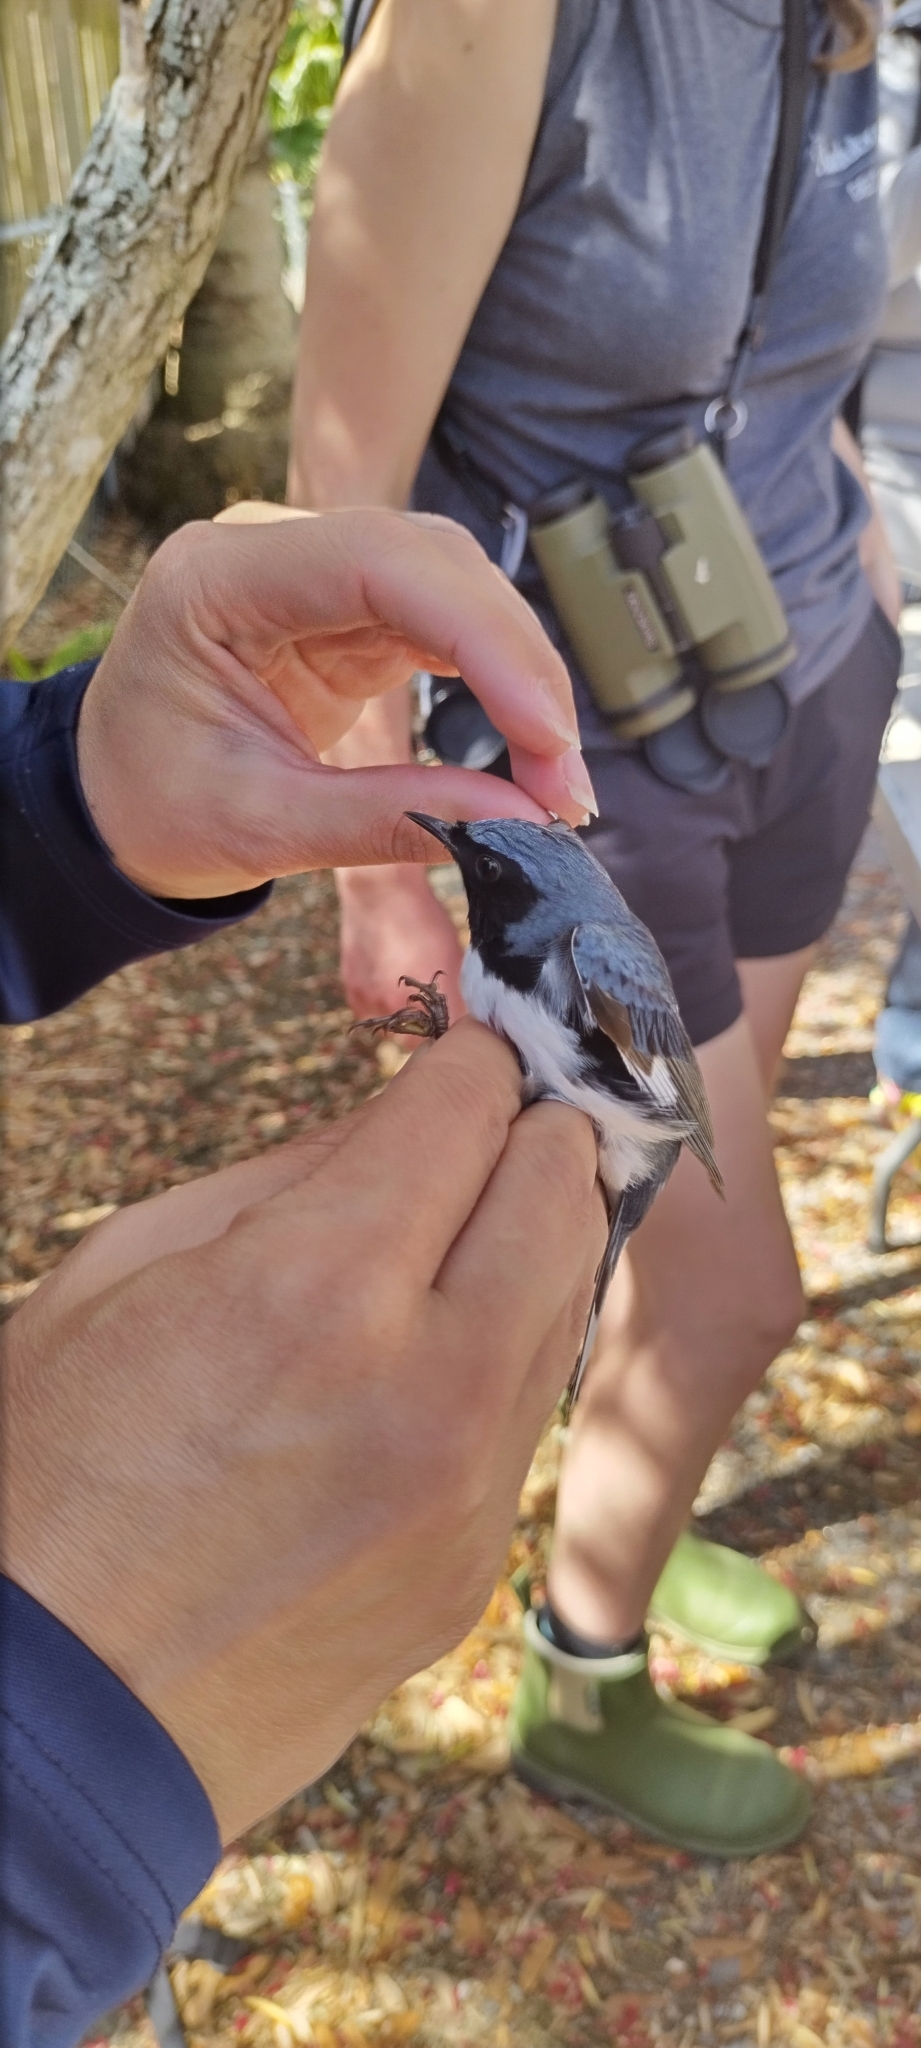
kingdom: Animalia
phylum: Chordata
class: Aves
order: Passeriformes
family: Parulidae
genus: Setophaga
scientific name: Setophaga caerulescens
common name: Black-throated blue warbler
